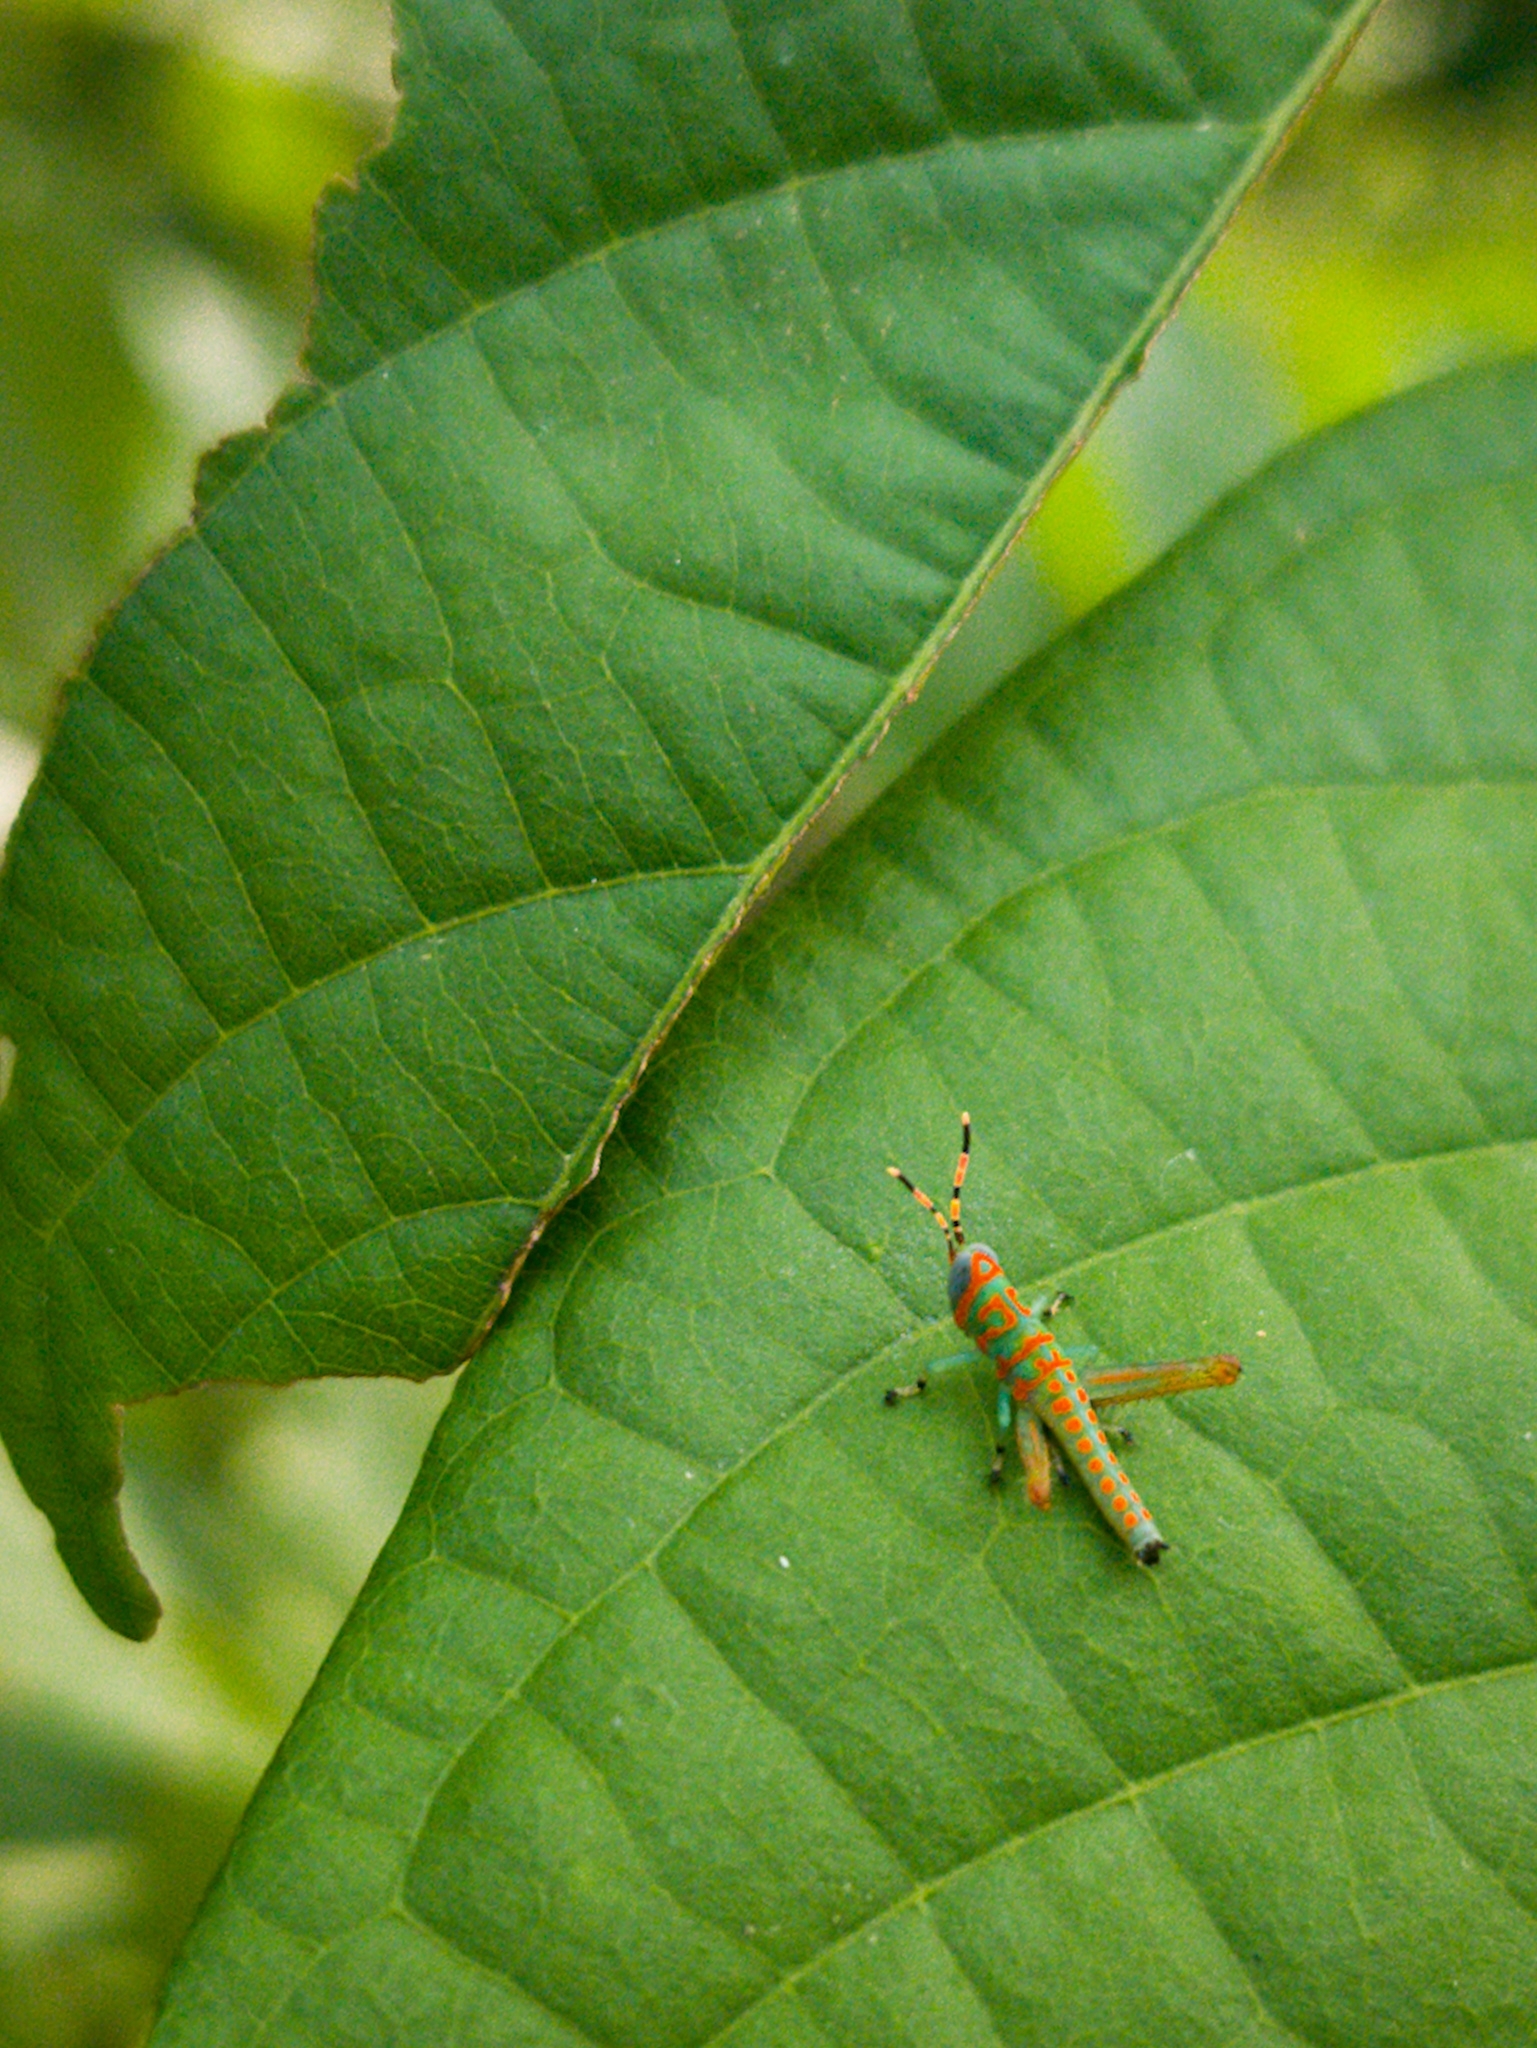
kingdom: Animalia
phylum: Arthropoda
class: Insecta
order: Orthoptera
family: Acrididae
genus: Pirithoicus
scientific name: Pirithoicus ophthalmicus
